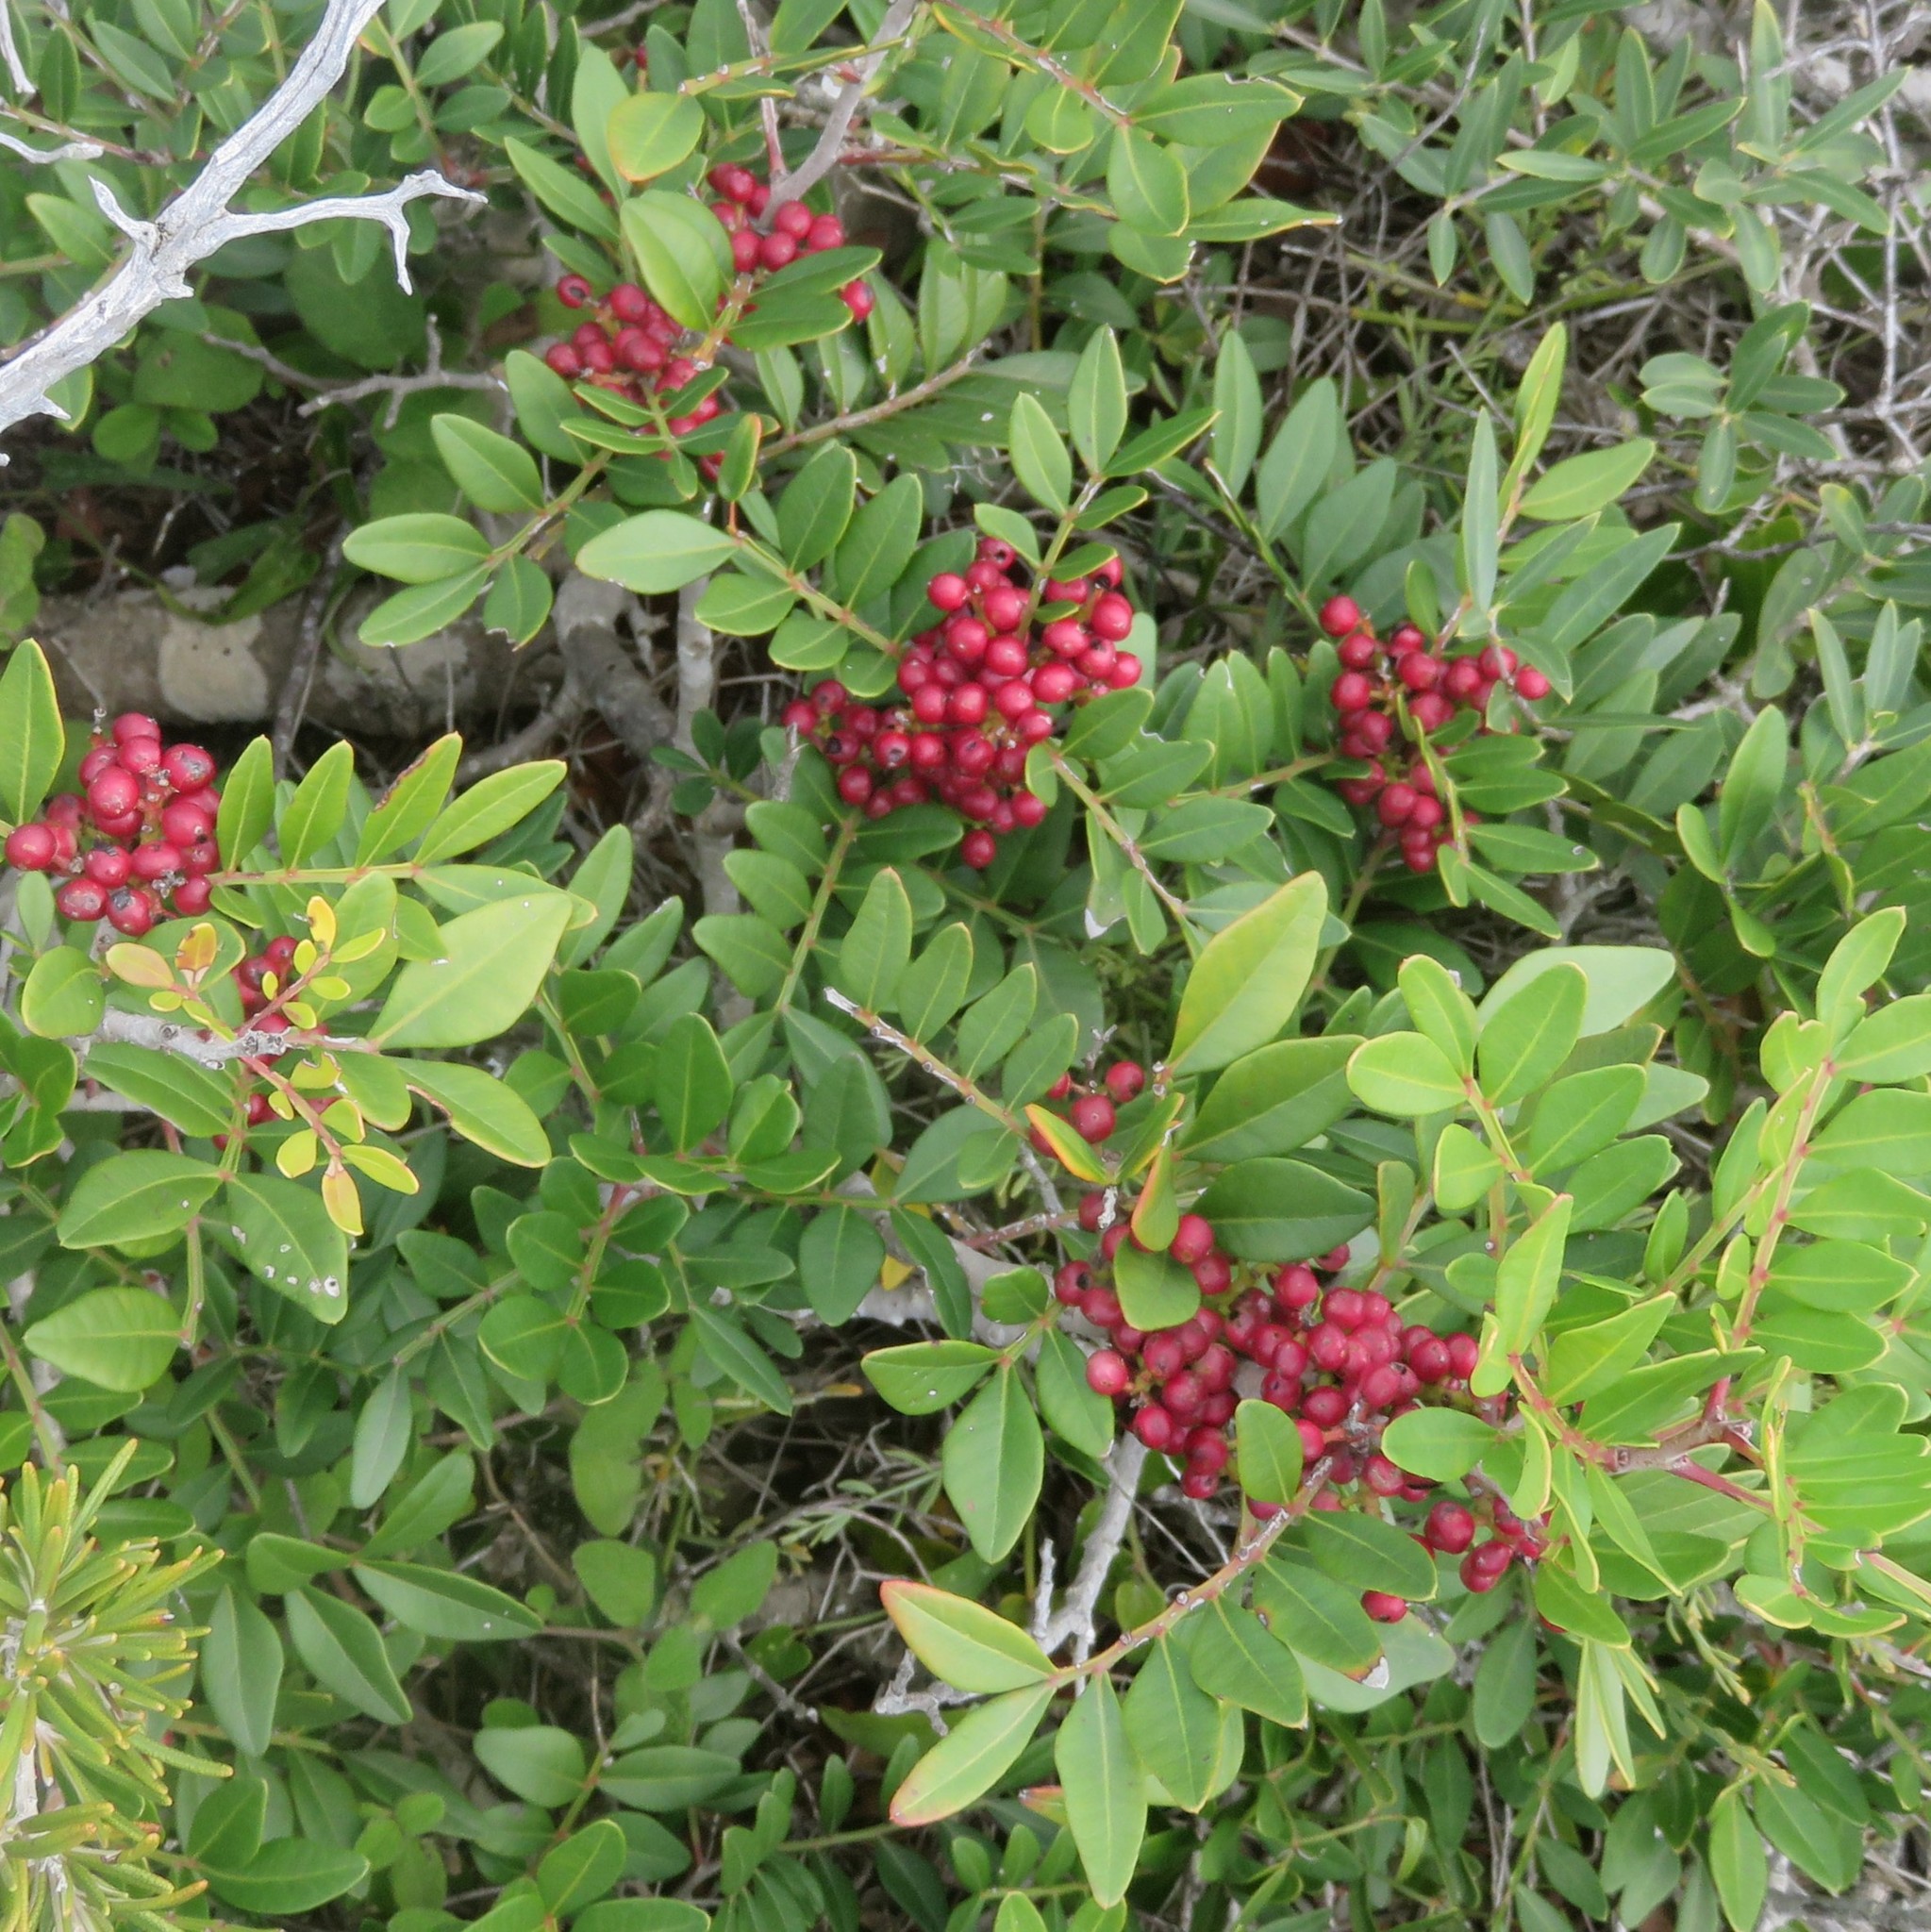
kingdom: Plantae
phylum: Tracheophyta
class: Magnoliopsida
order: Sapindales
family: Anacardiaceae
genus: Pistacia
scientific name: Pistacia lentiscus
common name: Lentisk
